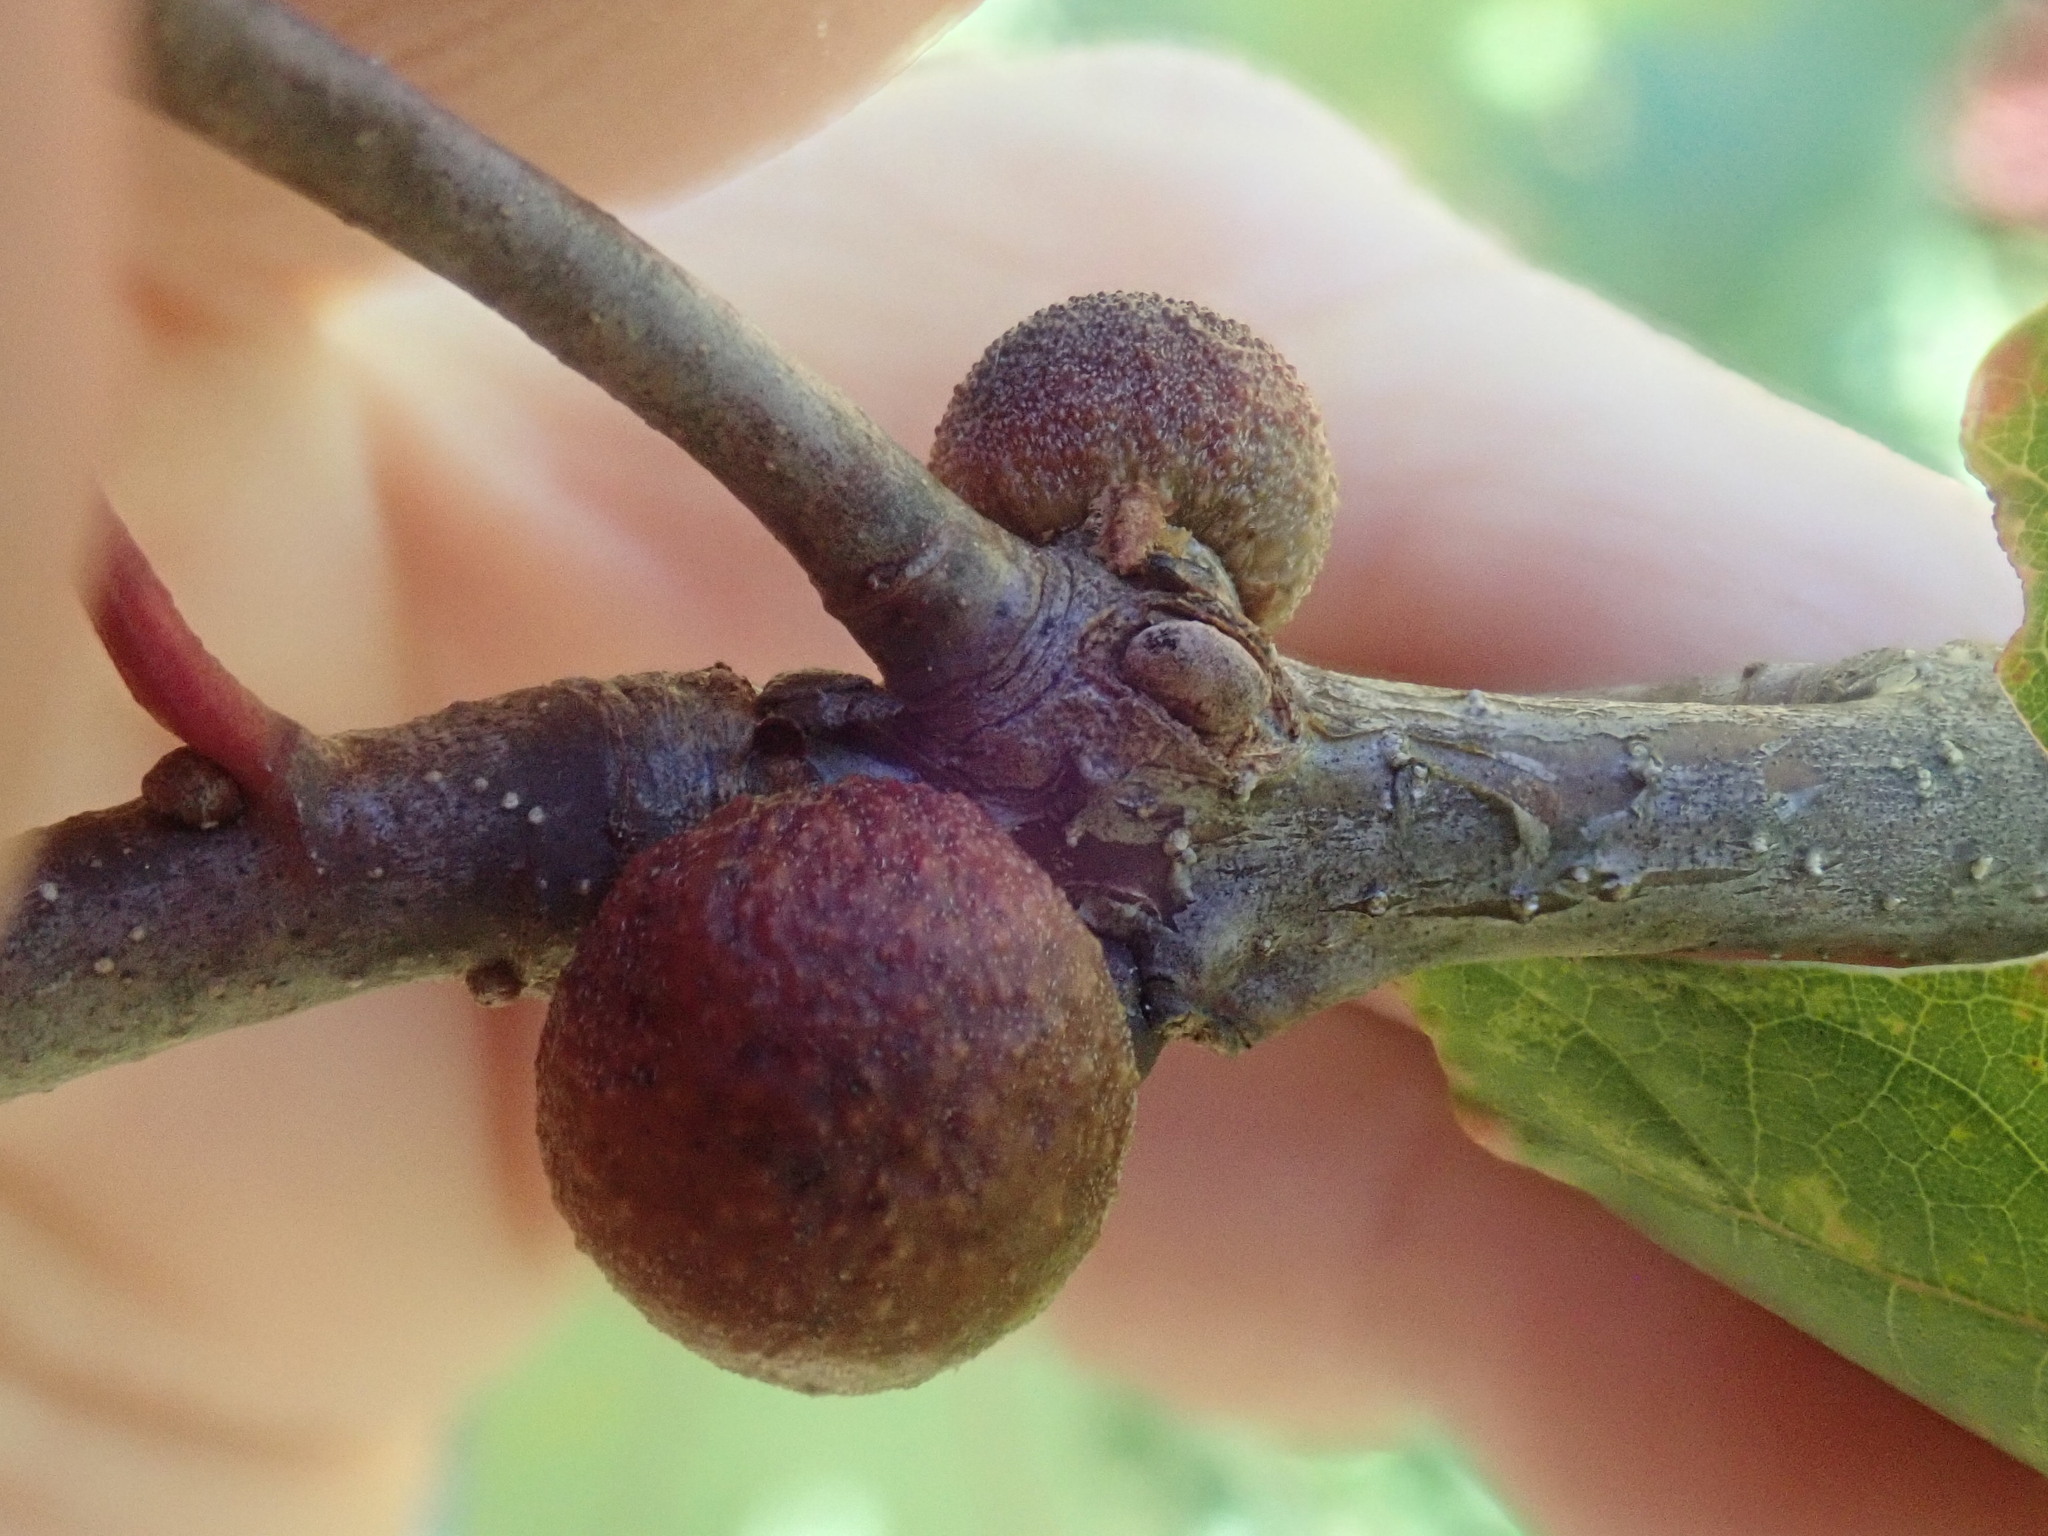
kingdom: Animalia
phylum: Arthropoda
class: Insecta
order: Hymenoptera
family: Cynipidae
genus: Disholcaspis
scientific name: Disholcaspis quercusglobulus
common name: Round bullet gall wasp
